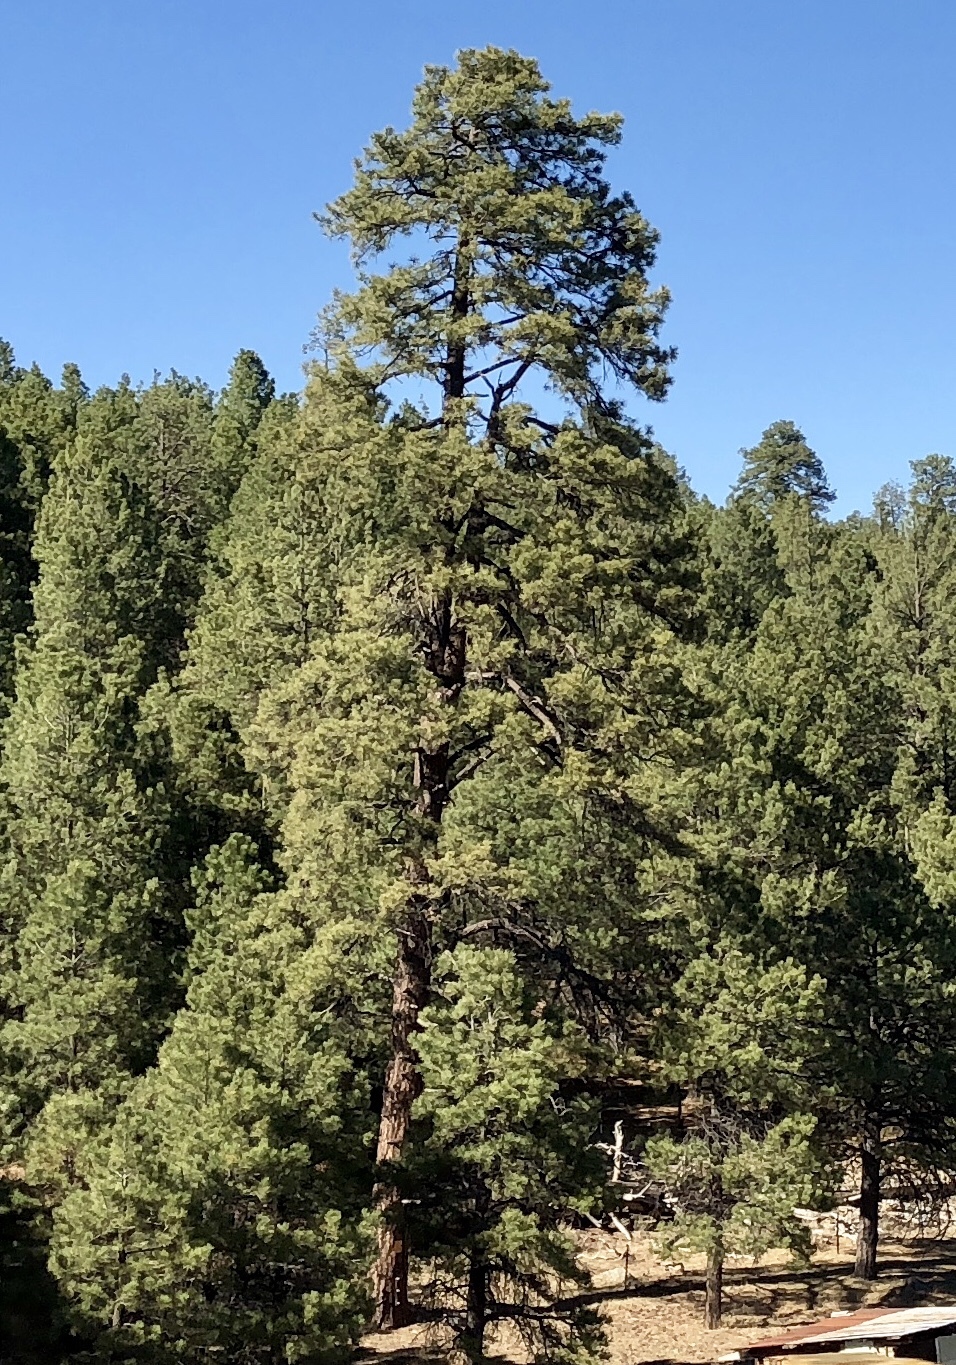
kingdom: Plantae
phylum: Tracheophyta
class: Pinopsida
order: Pinales
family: Pinaceae
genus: Pinus
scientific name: Pinus ponderosa
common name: Western yellow-pine
